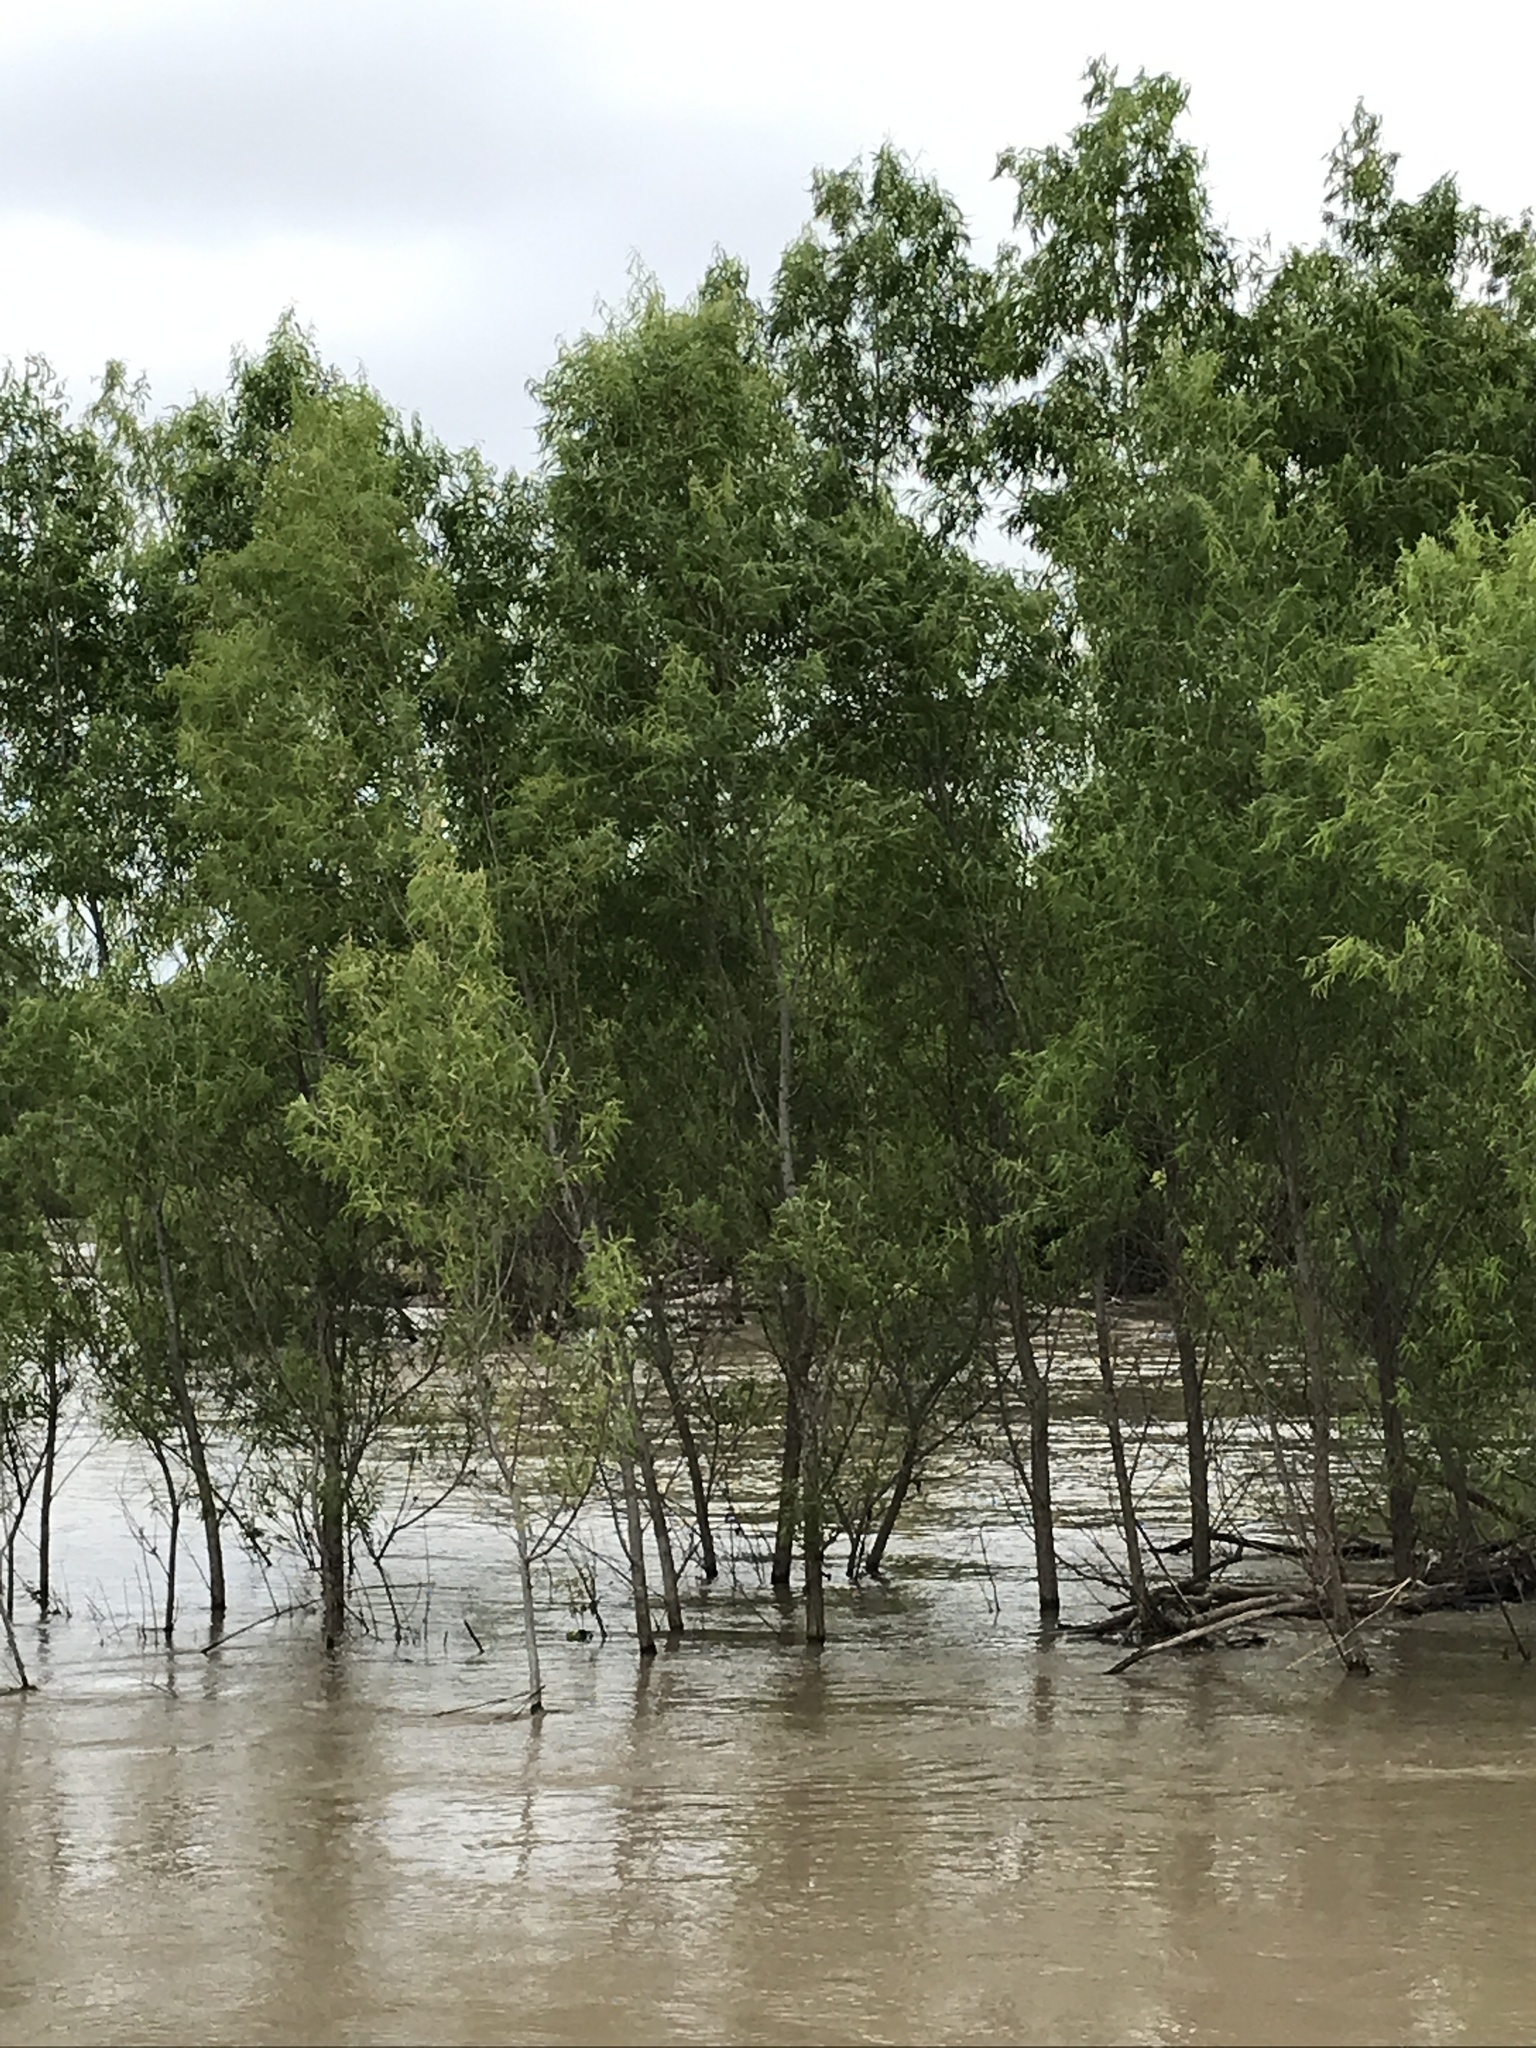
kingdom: Plantae
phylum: Tracheophyta
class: Magnoliopsida
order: Malpighiales
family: Salicaceae
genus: Salix
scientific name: Salix nigra
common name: Black willow
